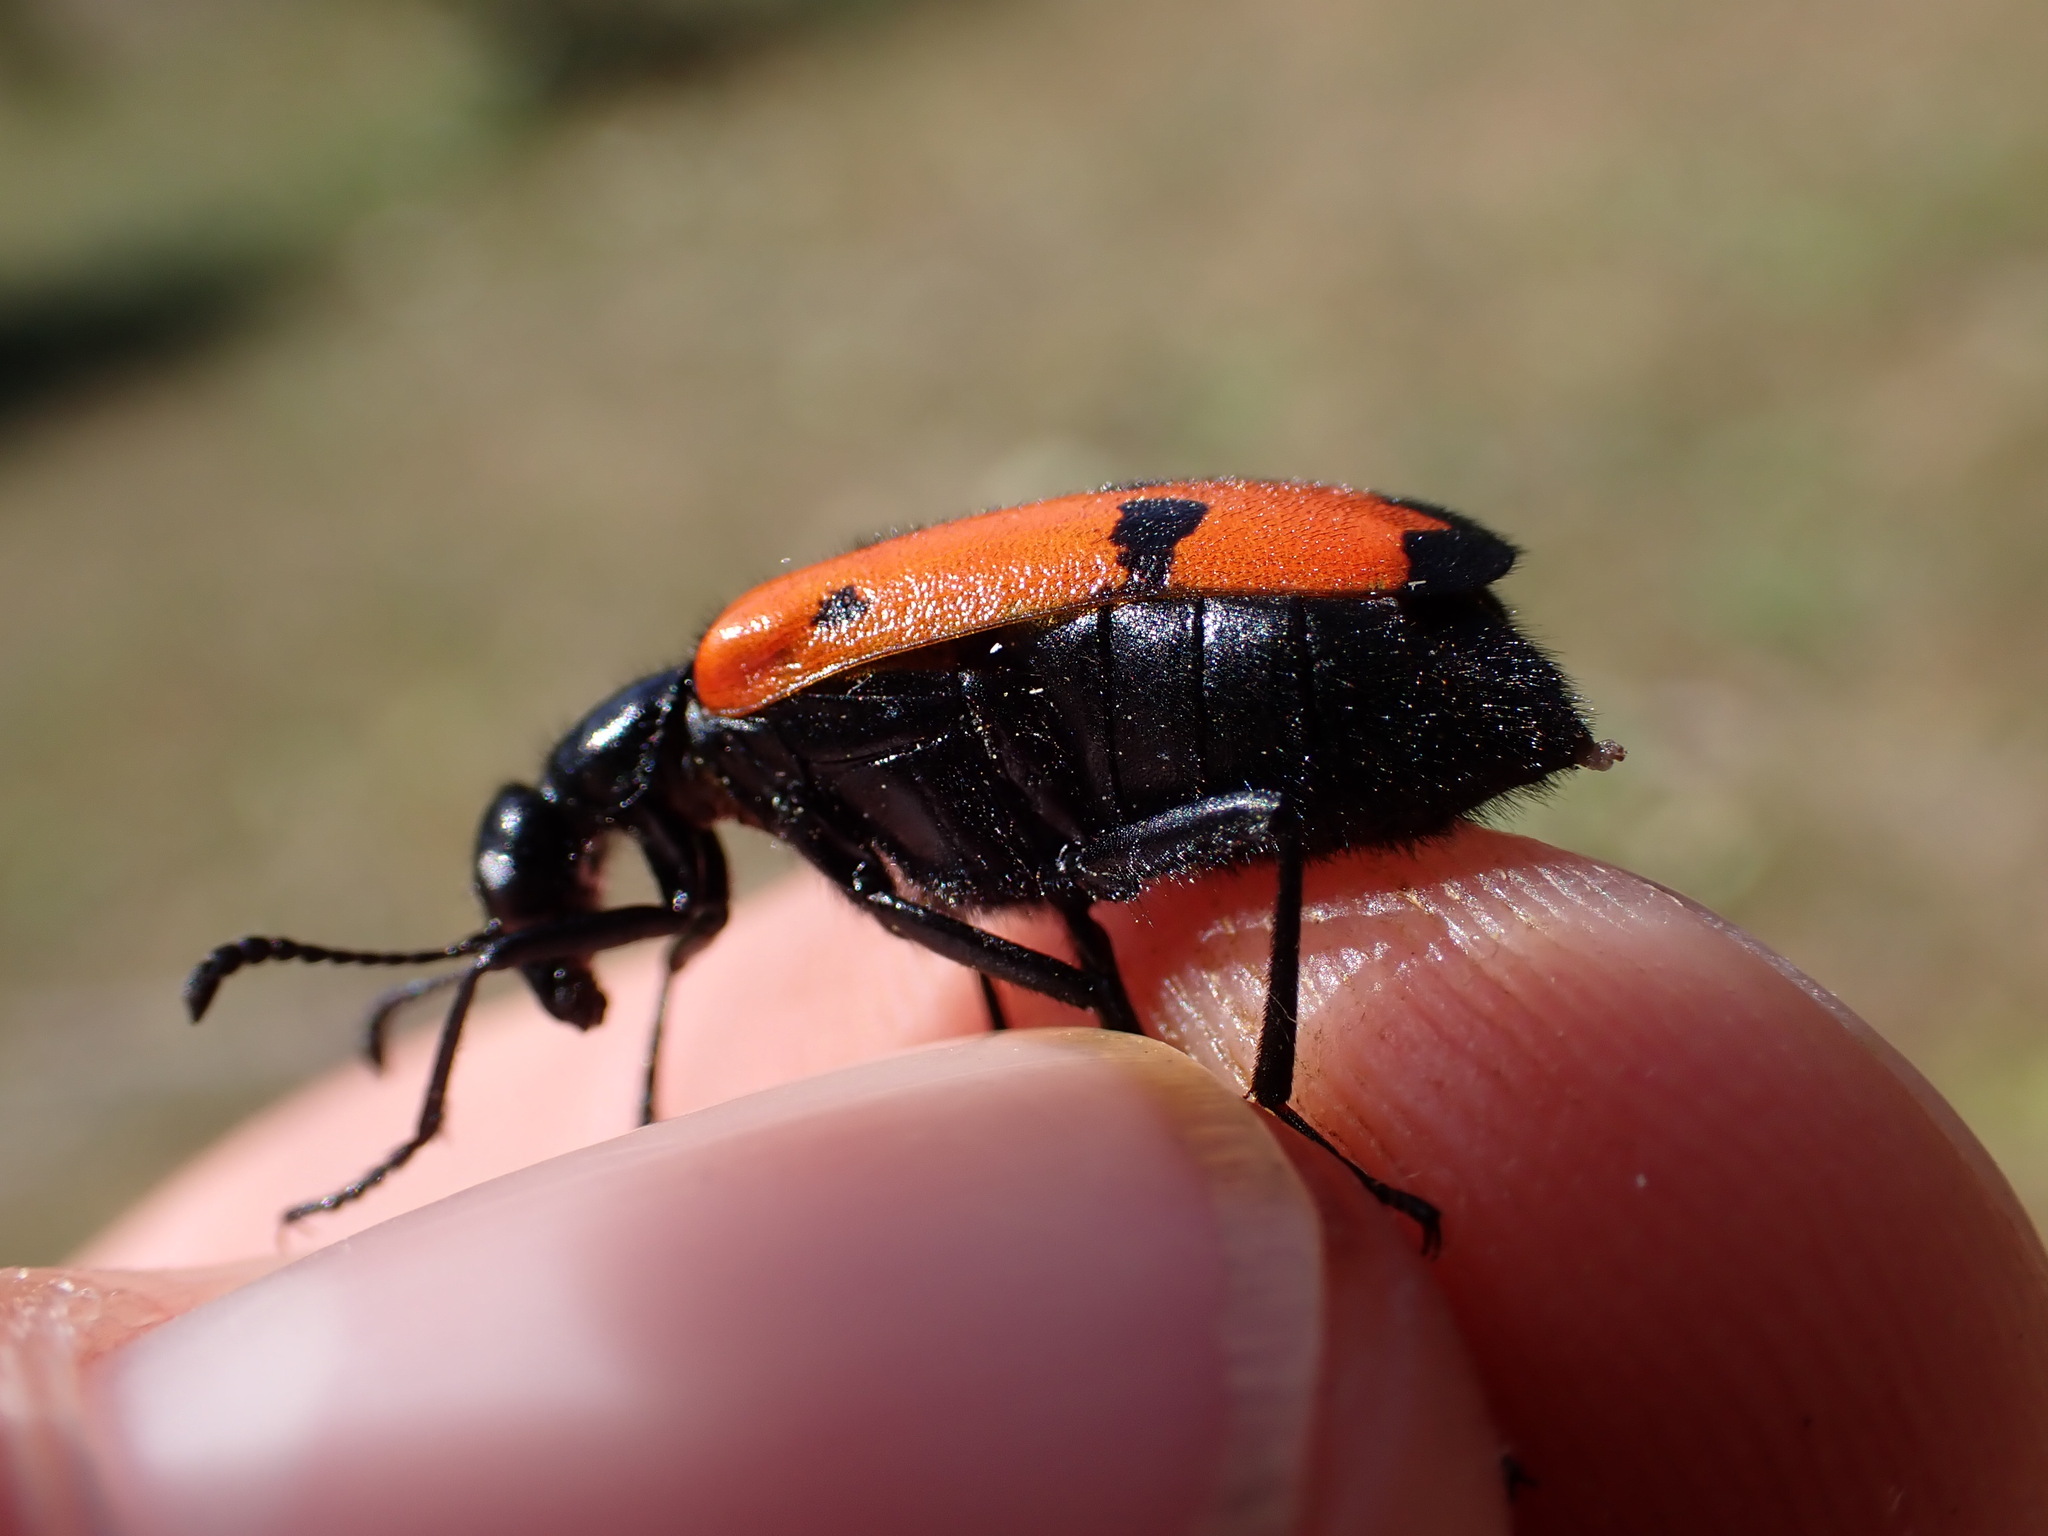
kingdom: Animalia
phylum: Arthropoda
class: Insecta
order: Coleoptera
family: Meloidae
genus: Mylabris
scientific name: Mylabris quadripunctata
